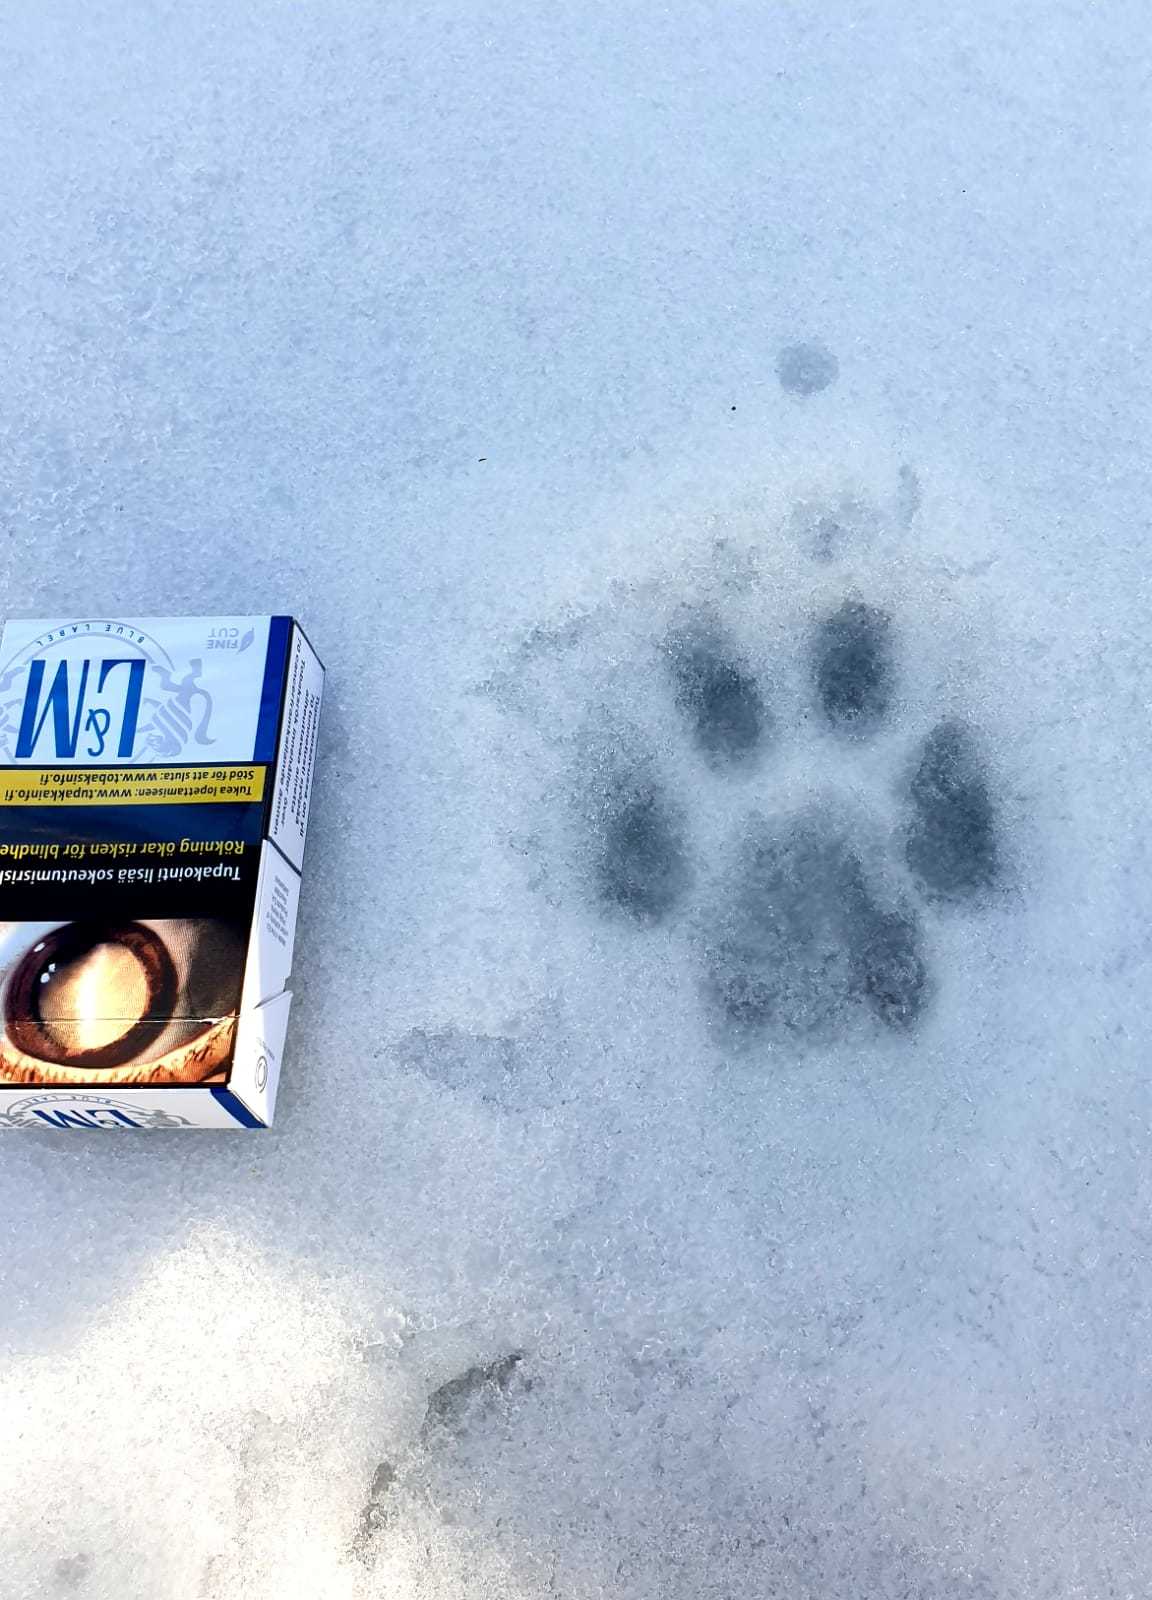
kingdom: Animalia
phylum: Chordata
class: Mammalia
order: Carnivora
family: Felidae
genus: Lynx
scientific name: Lynx lynx
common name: Eurasian lynx
